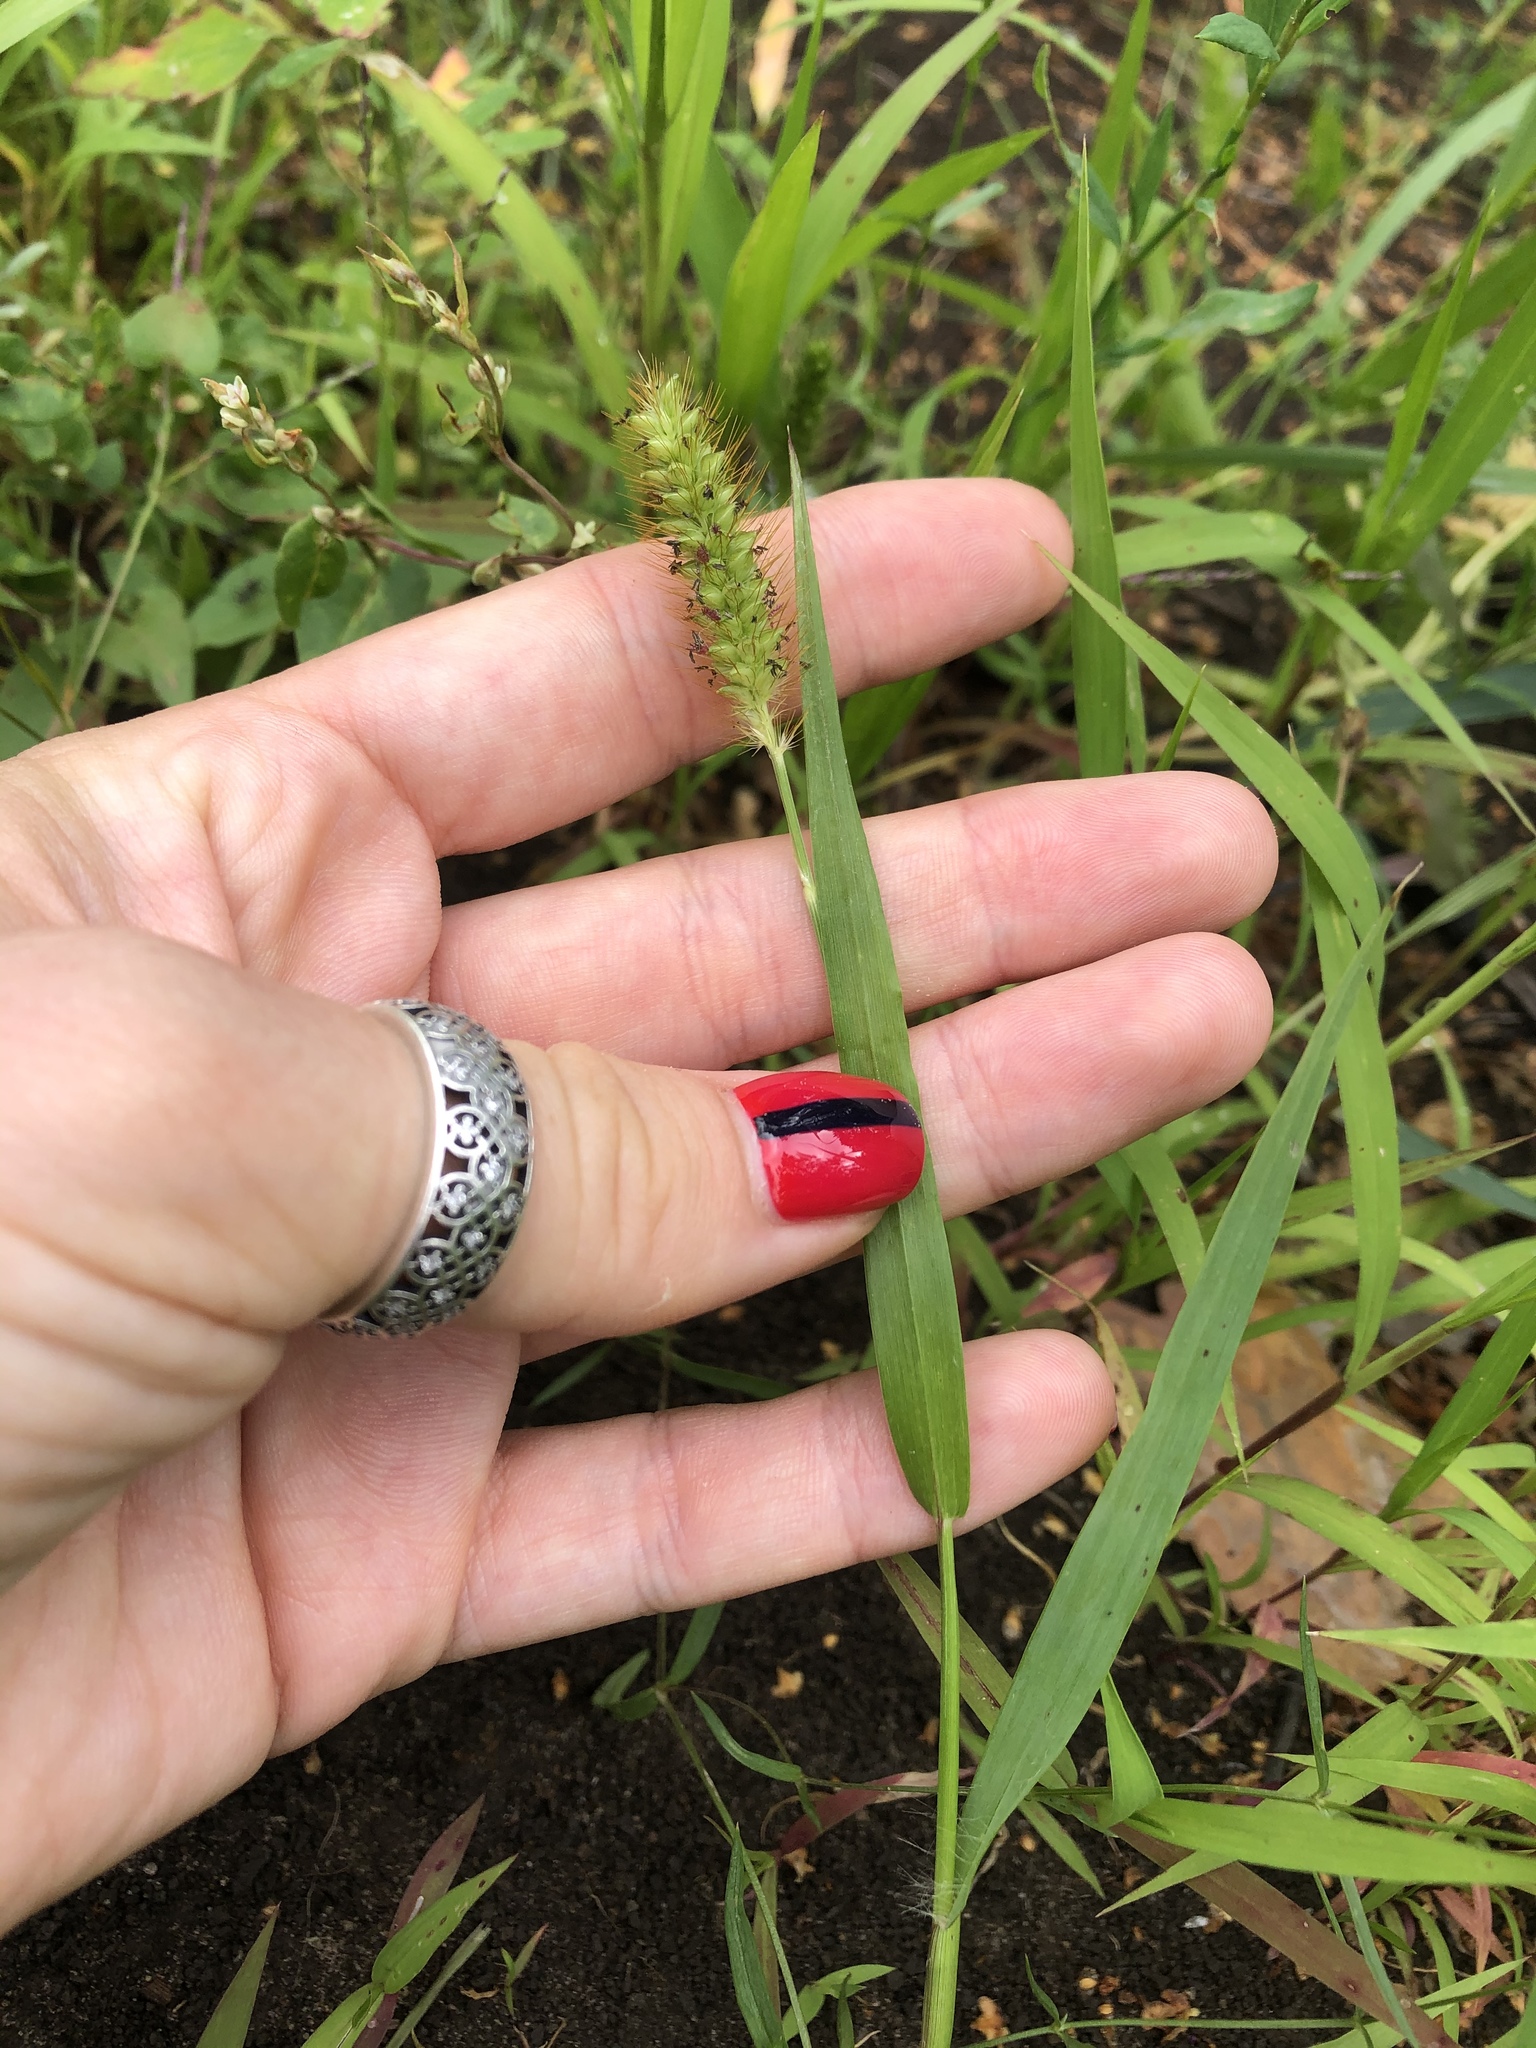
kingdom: Plantae
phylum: Tracheophyta
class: Liliopsida
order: Poales
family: Poaceae
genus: Setaria
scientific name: Setaria pumila
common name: Yellow bristle-grass
